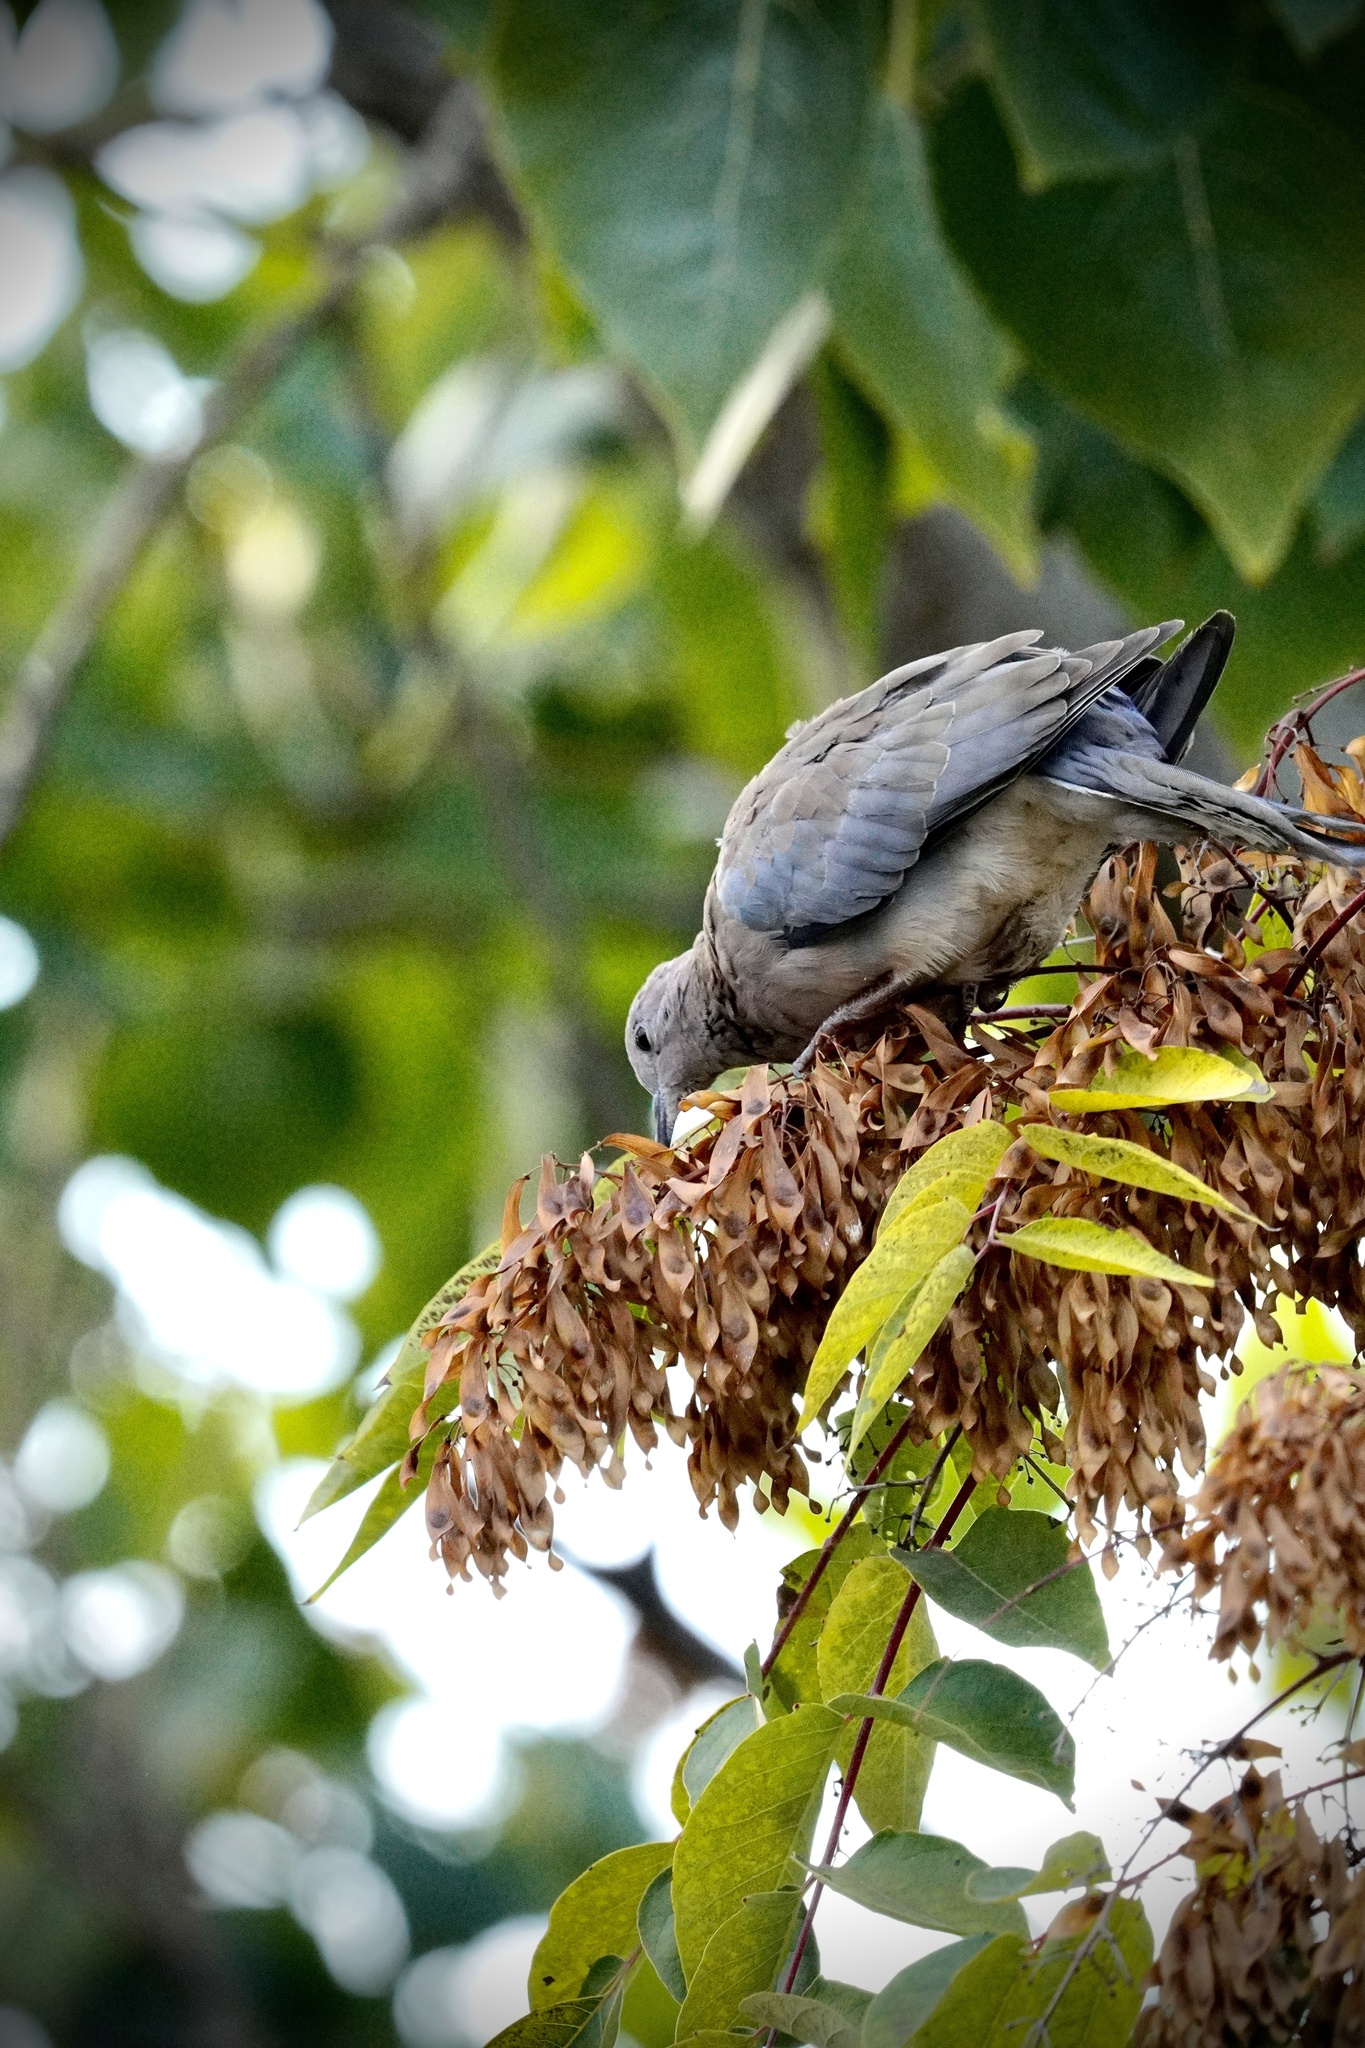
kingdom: Animalia
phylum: Chordata
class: Aves
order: Columbiformes
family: Columbidae
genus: Spilopelia
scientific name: Spilopelia senegalensis
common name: Laughing dove
